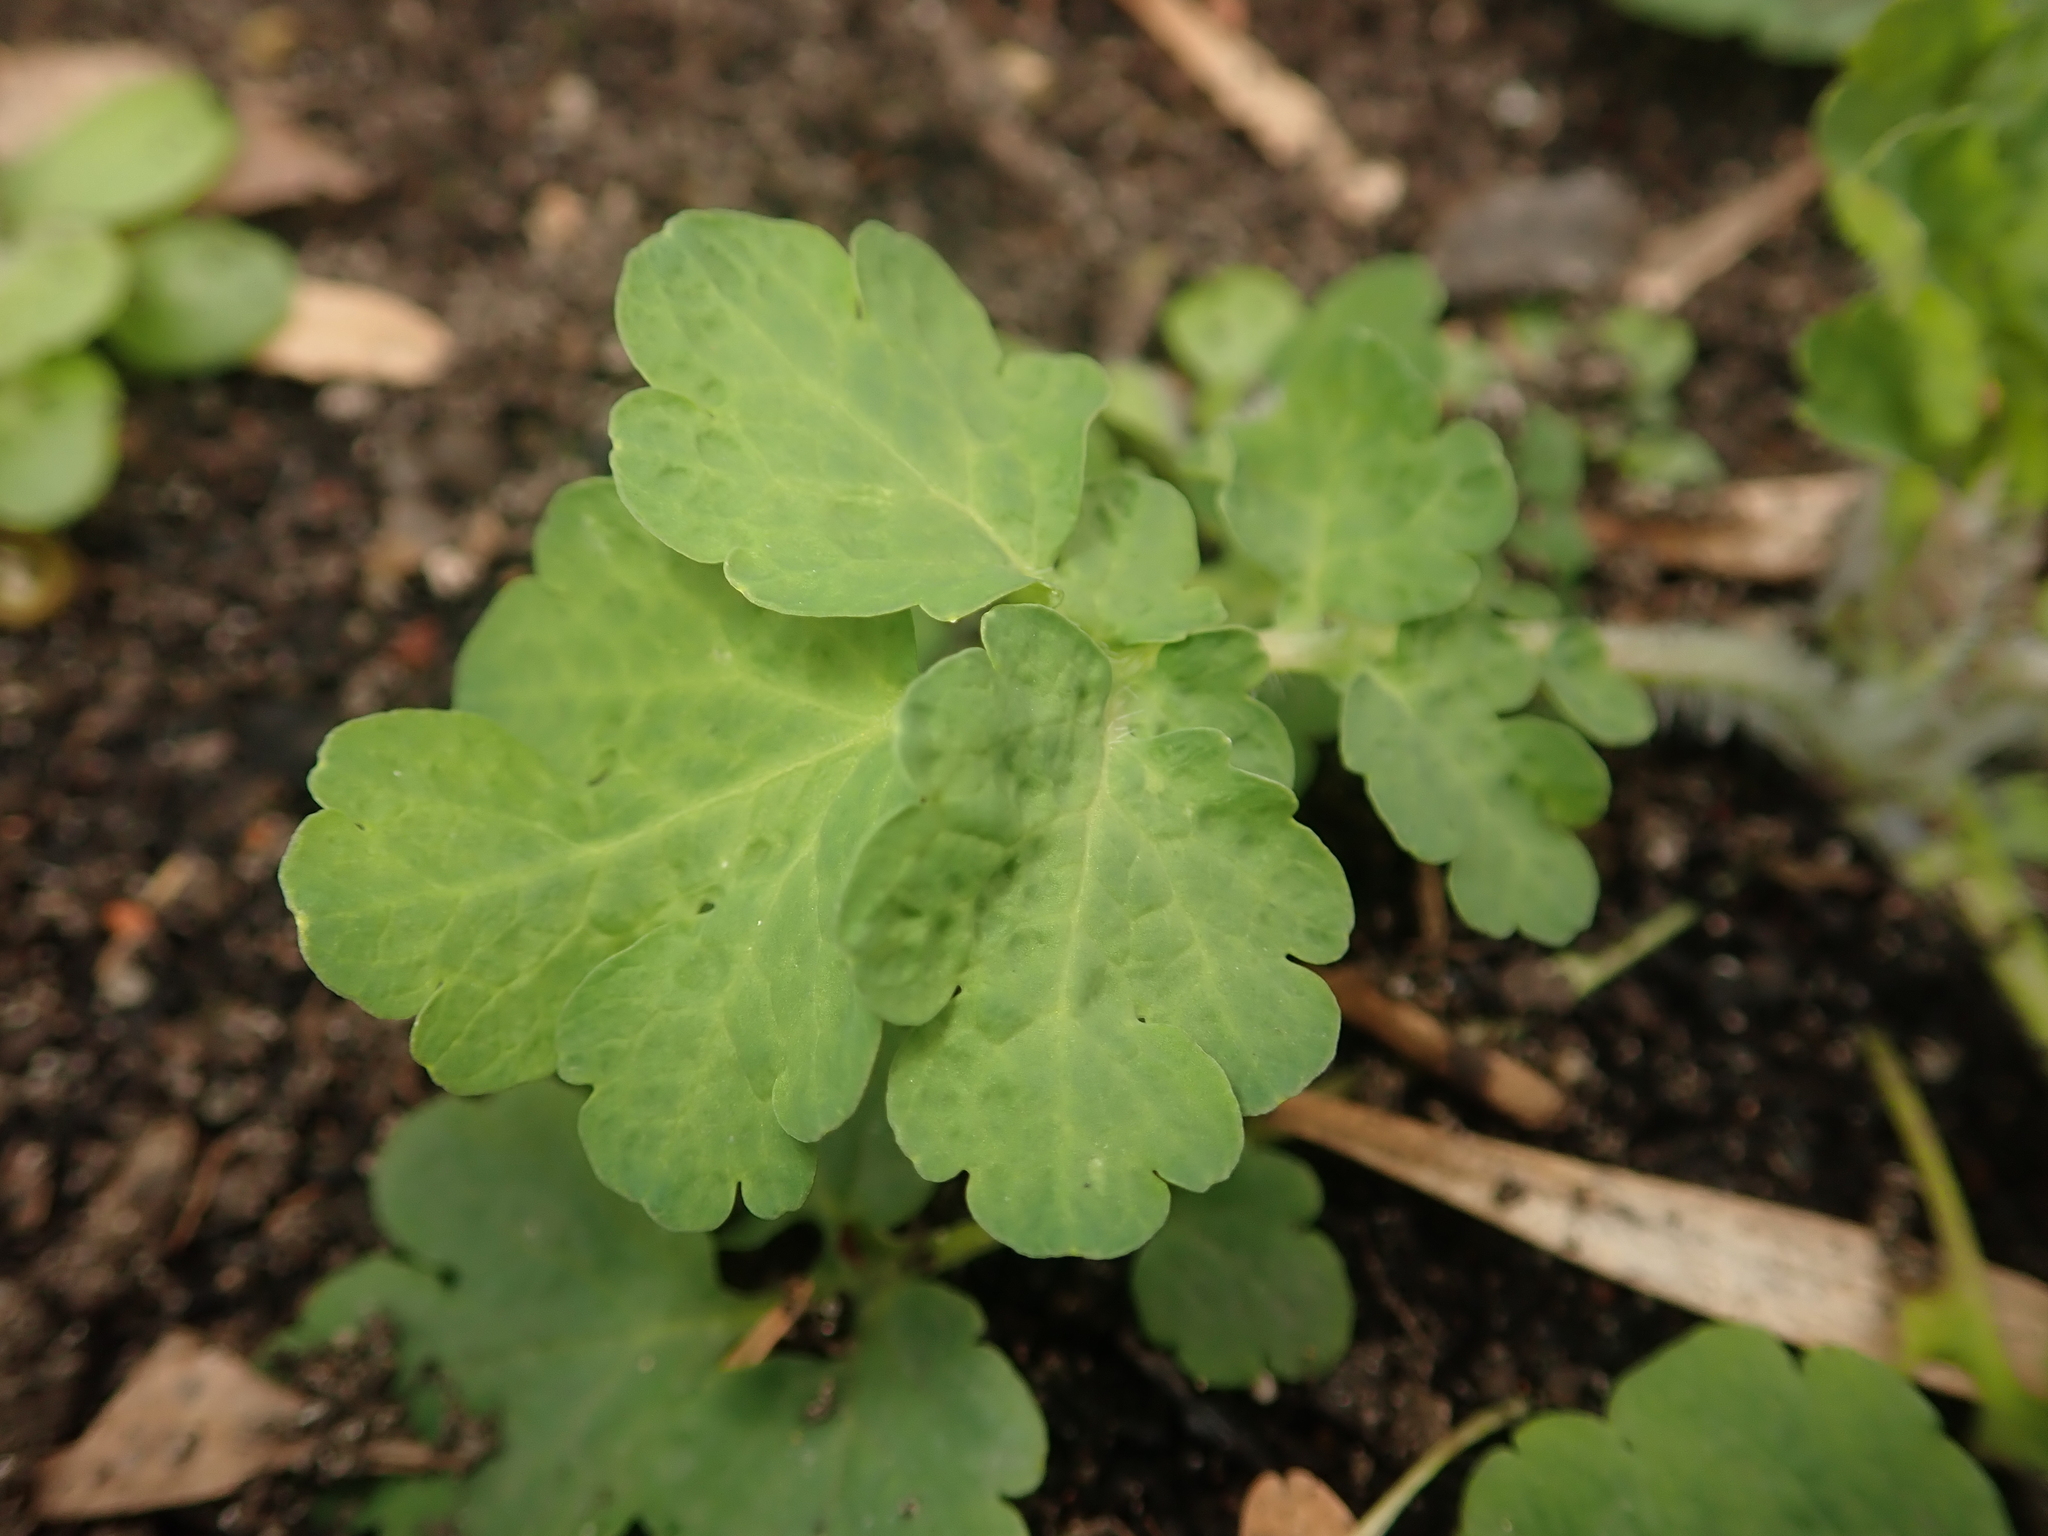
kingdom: Plantae
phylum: Tracheophyta
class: Magnoliopsida
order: Ranunculales
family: Papaveraceae
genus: Chelidonium
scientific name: Chelidonium majus
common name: Greater celandine
